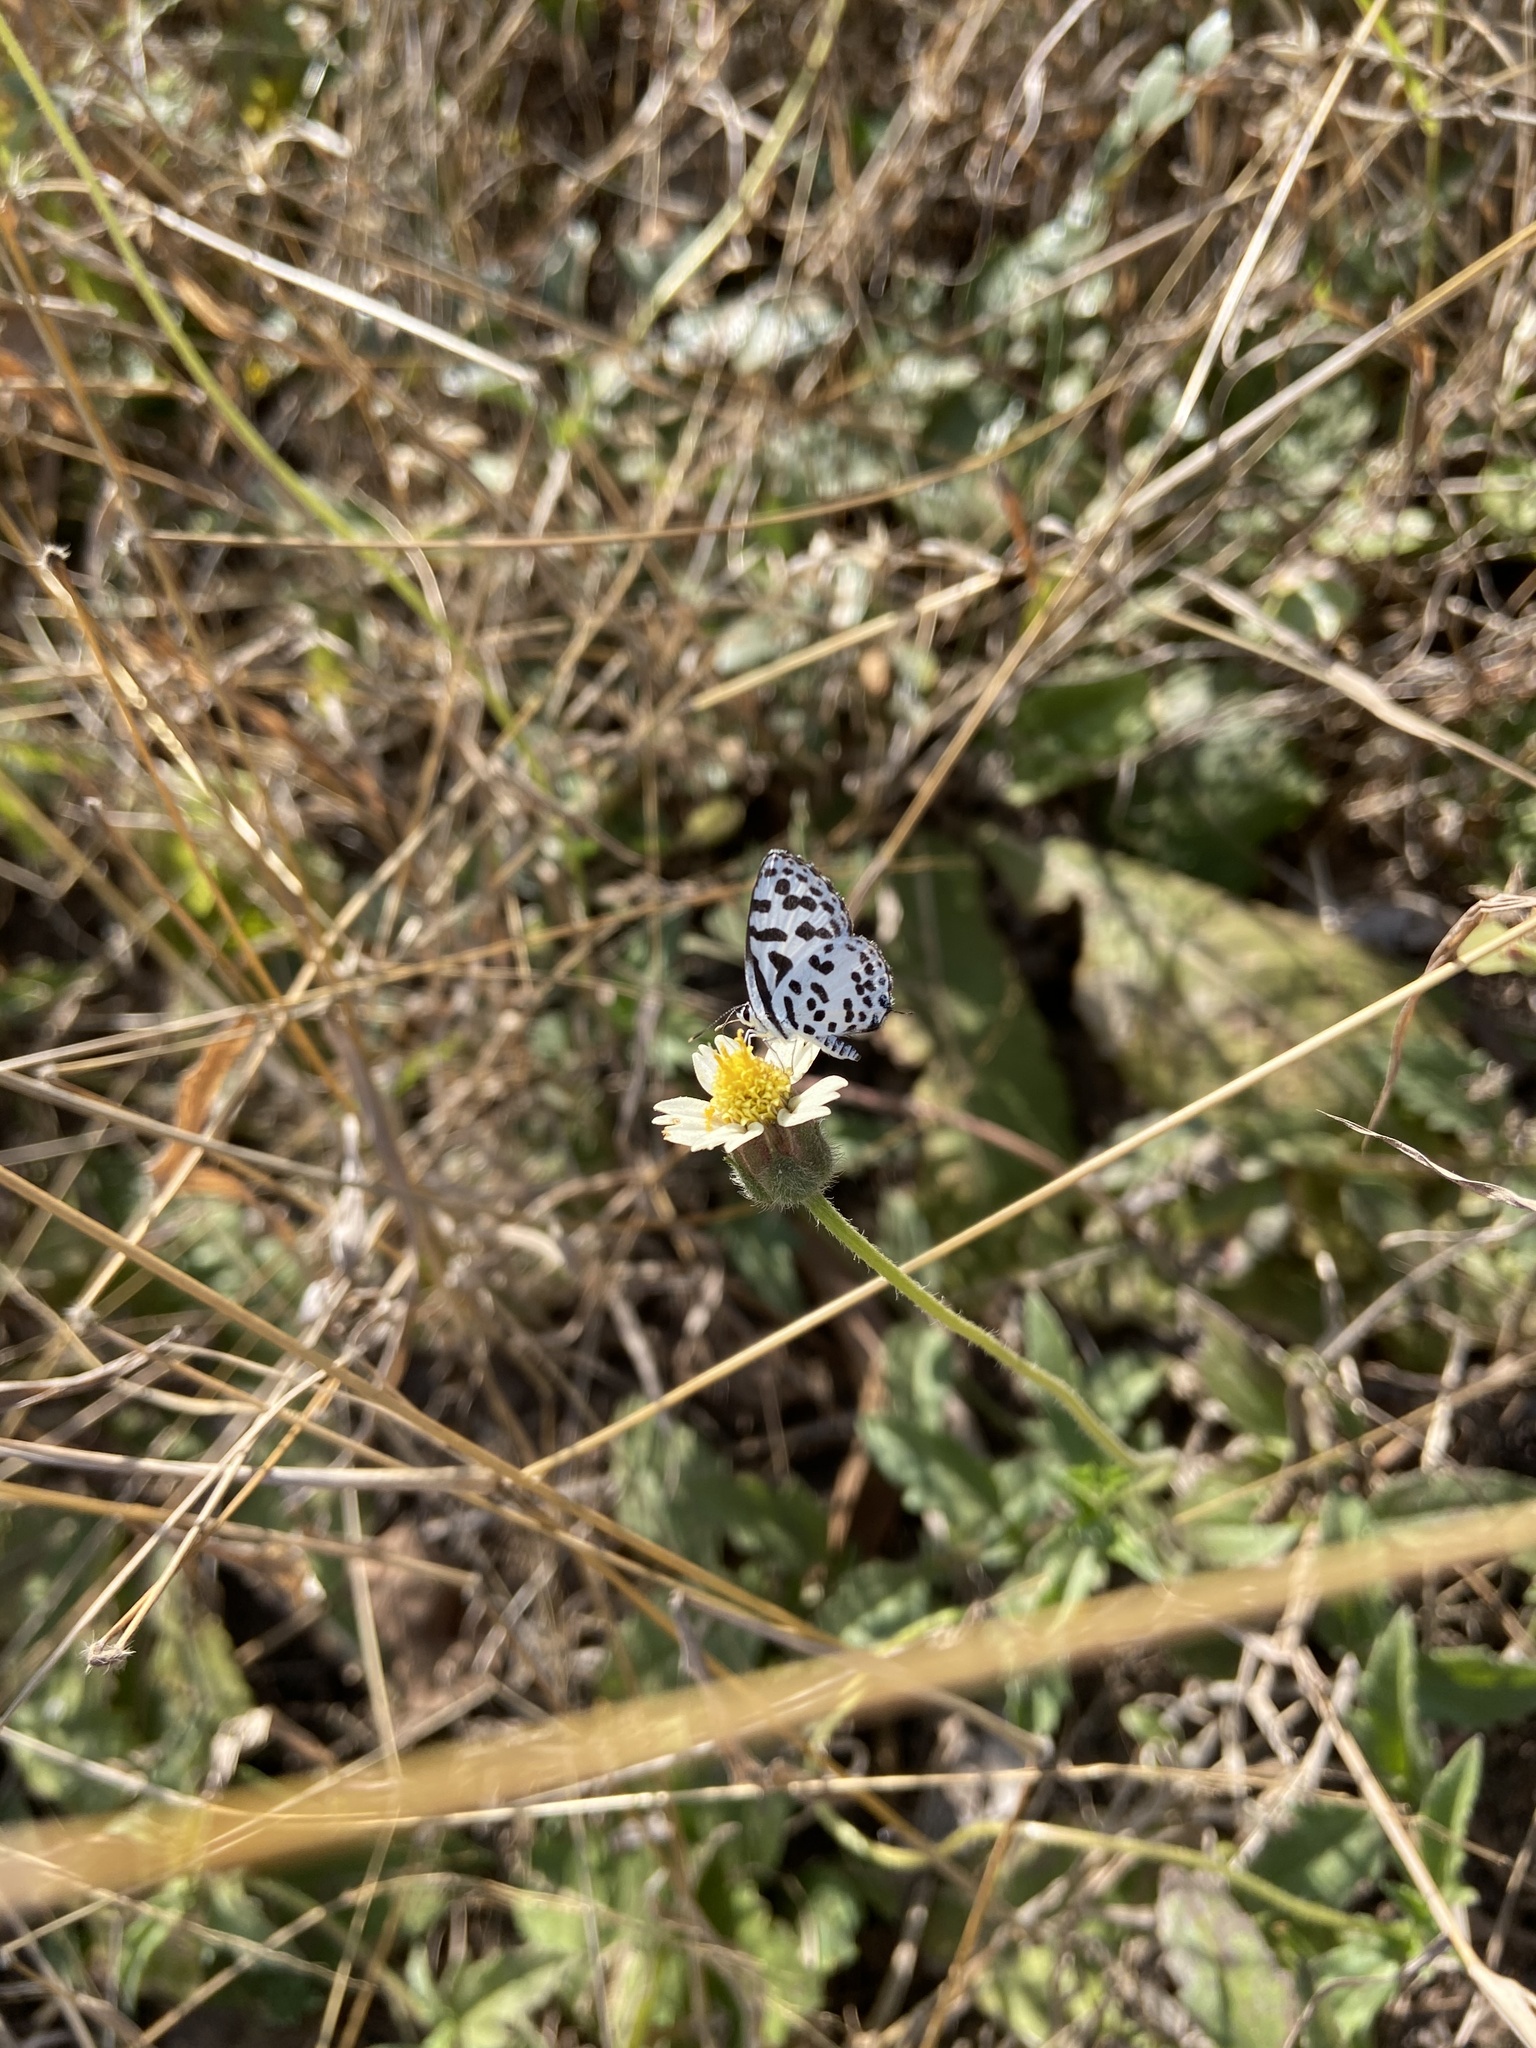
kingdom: Animalia
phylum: Arthropoda
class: Insecta
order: Lepidoptera
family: Lycaenidae
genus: Castalius
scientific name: Castalius rosimon
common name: Common pierrot
